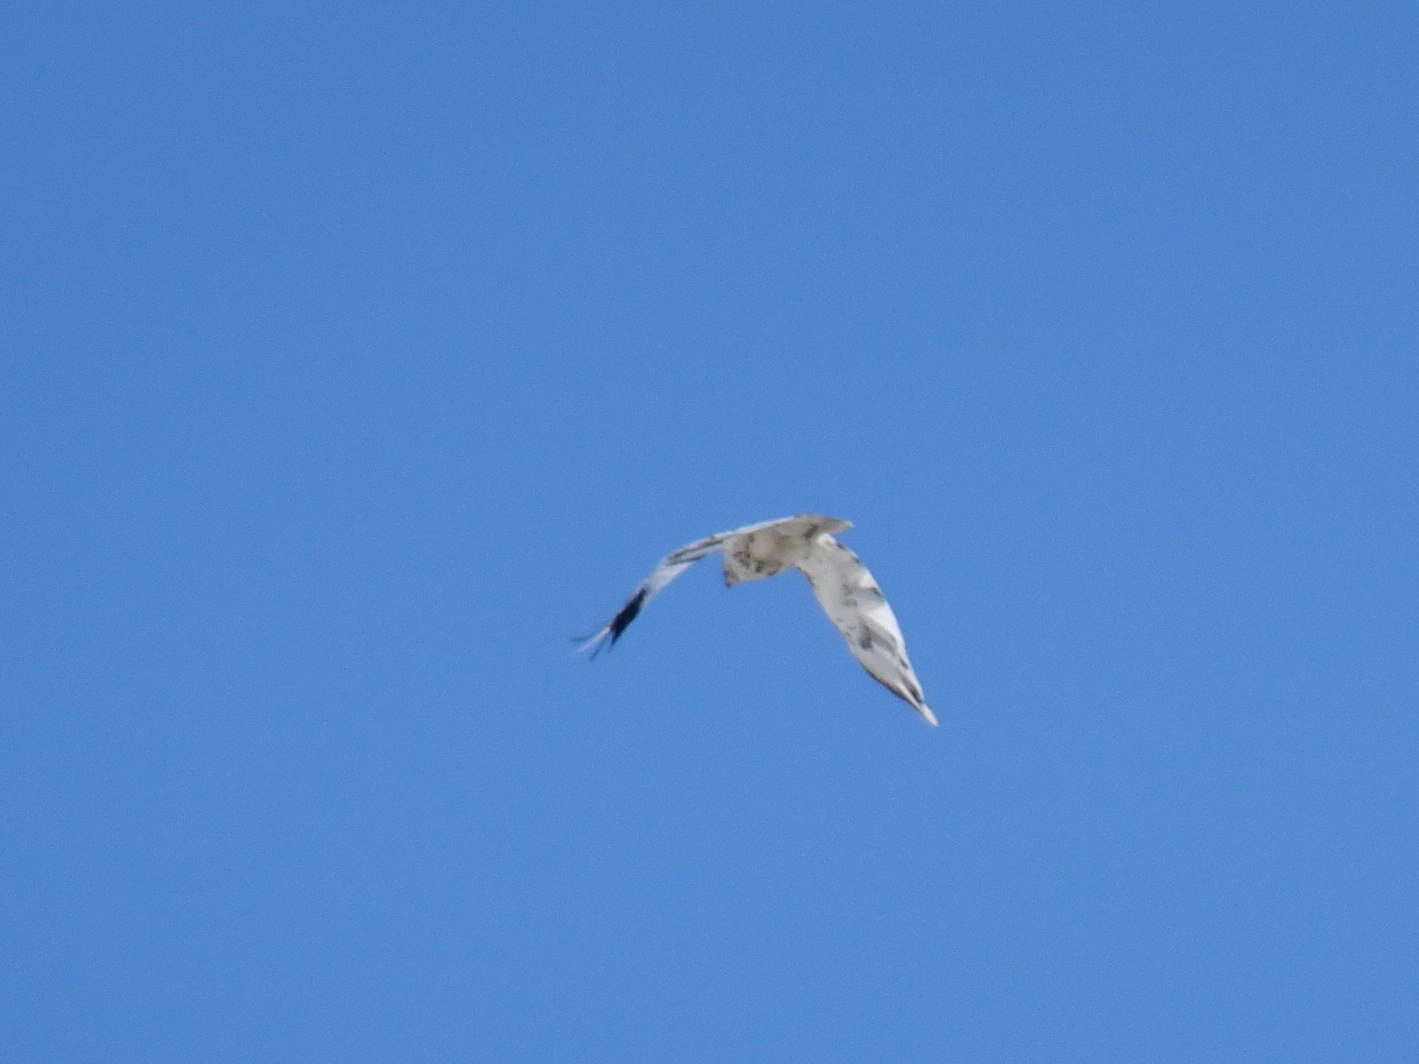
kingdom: Animalia
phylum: Chordata
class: Aves
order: Accipitriformes
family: Accipitridae
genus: Buteo
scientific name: Buteo jamaicensis
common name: Red-tailed hawk
